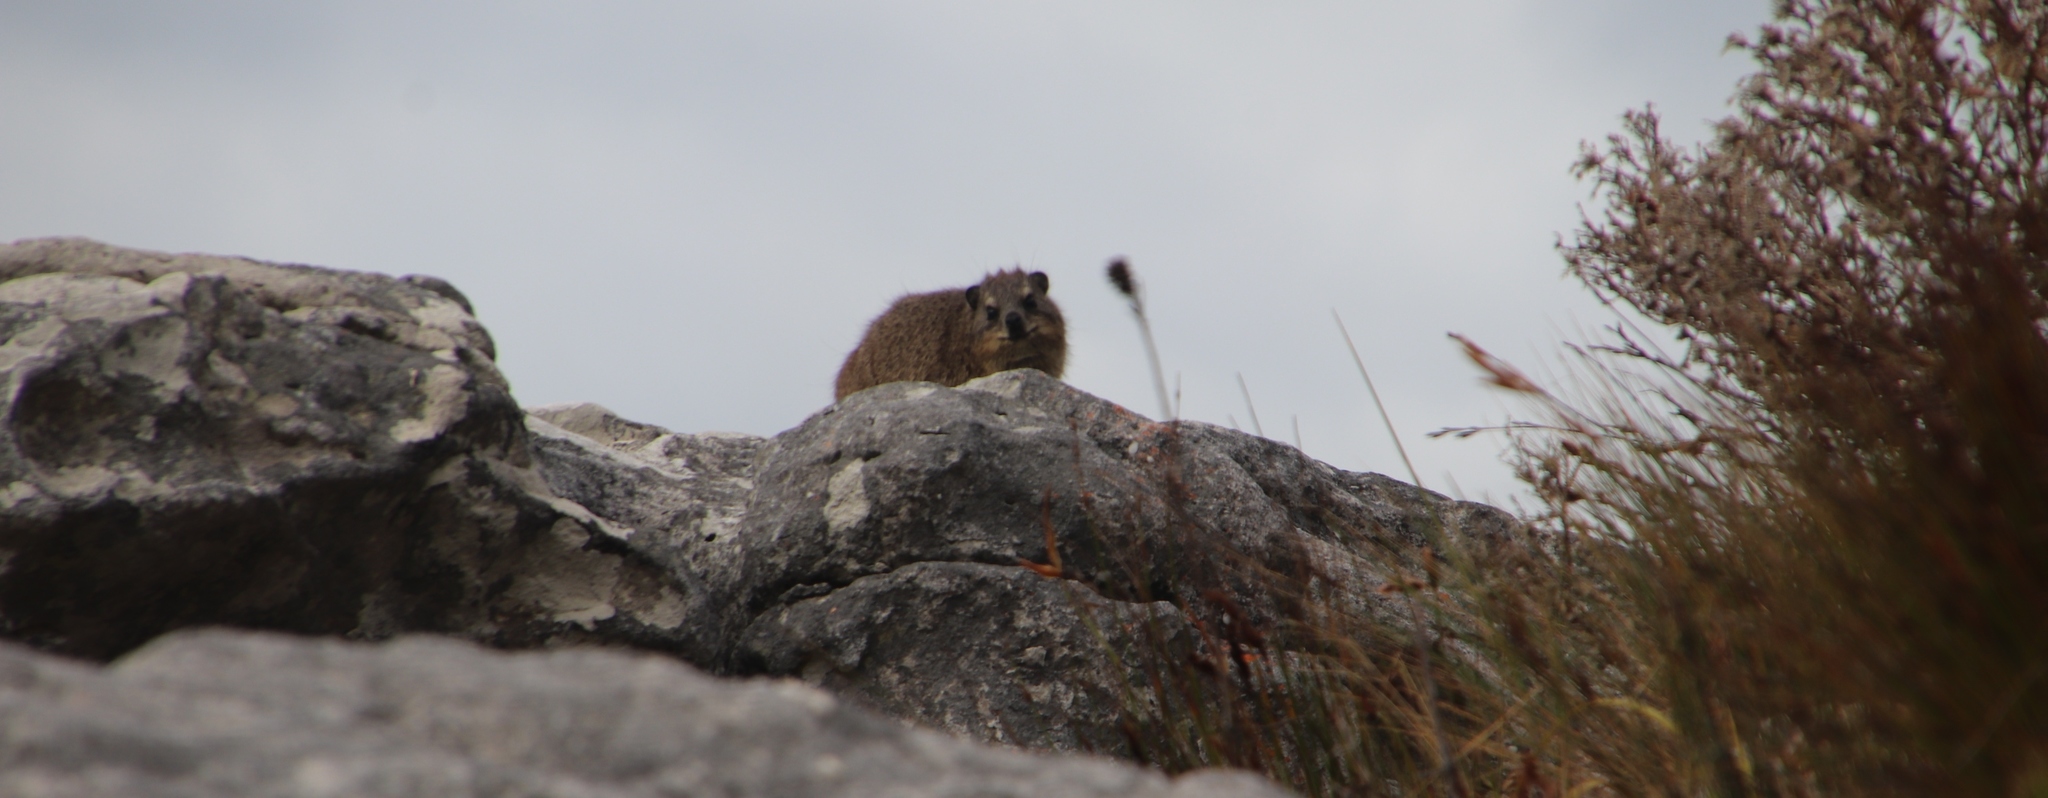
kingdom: Animalia
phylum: Chordata
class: Mammalia
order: Hyracoidea
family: Procaviidae
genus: Procavia
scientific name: Procavia capensis
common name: Rock hyrax
